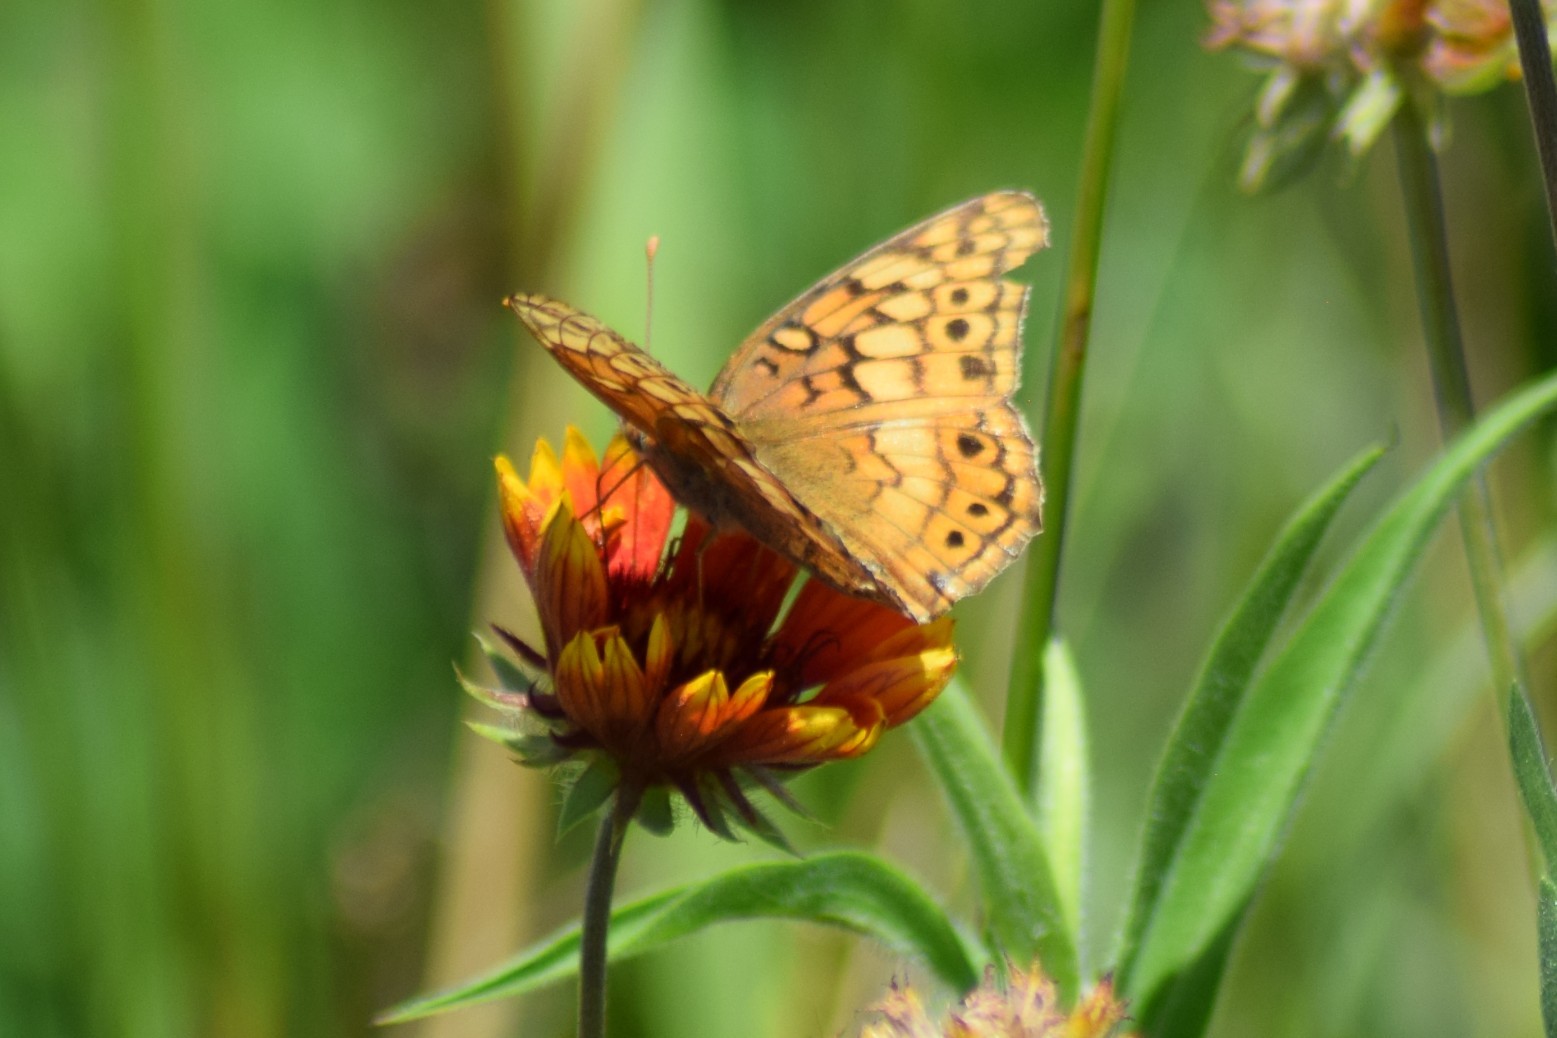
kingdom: Animalia
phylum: Arthropoda
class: Insecta
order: Lepidoptera
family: Nymphalidae
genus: Euptoieta
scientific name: Euptoieta claudia
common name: Variegated fritillary
